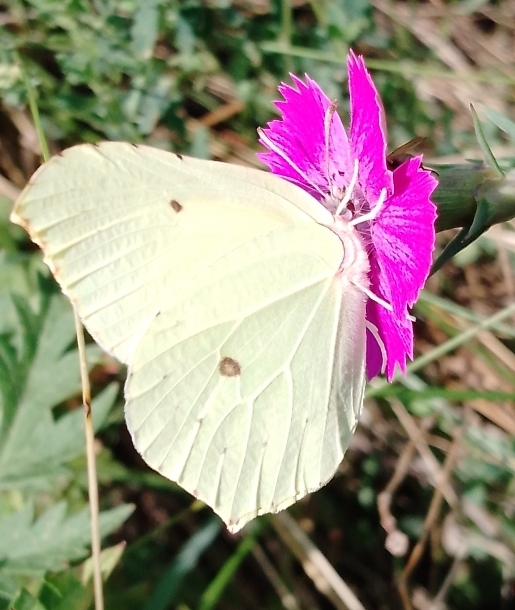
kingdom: Animalia
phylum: Arthropoda
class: Insecta
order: Lepidoptera
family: Pieridae
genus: Gonepteryx
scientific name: Gonepteryx rhamni
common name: Brimstone
